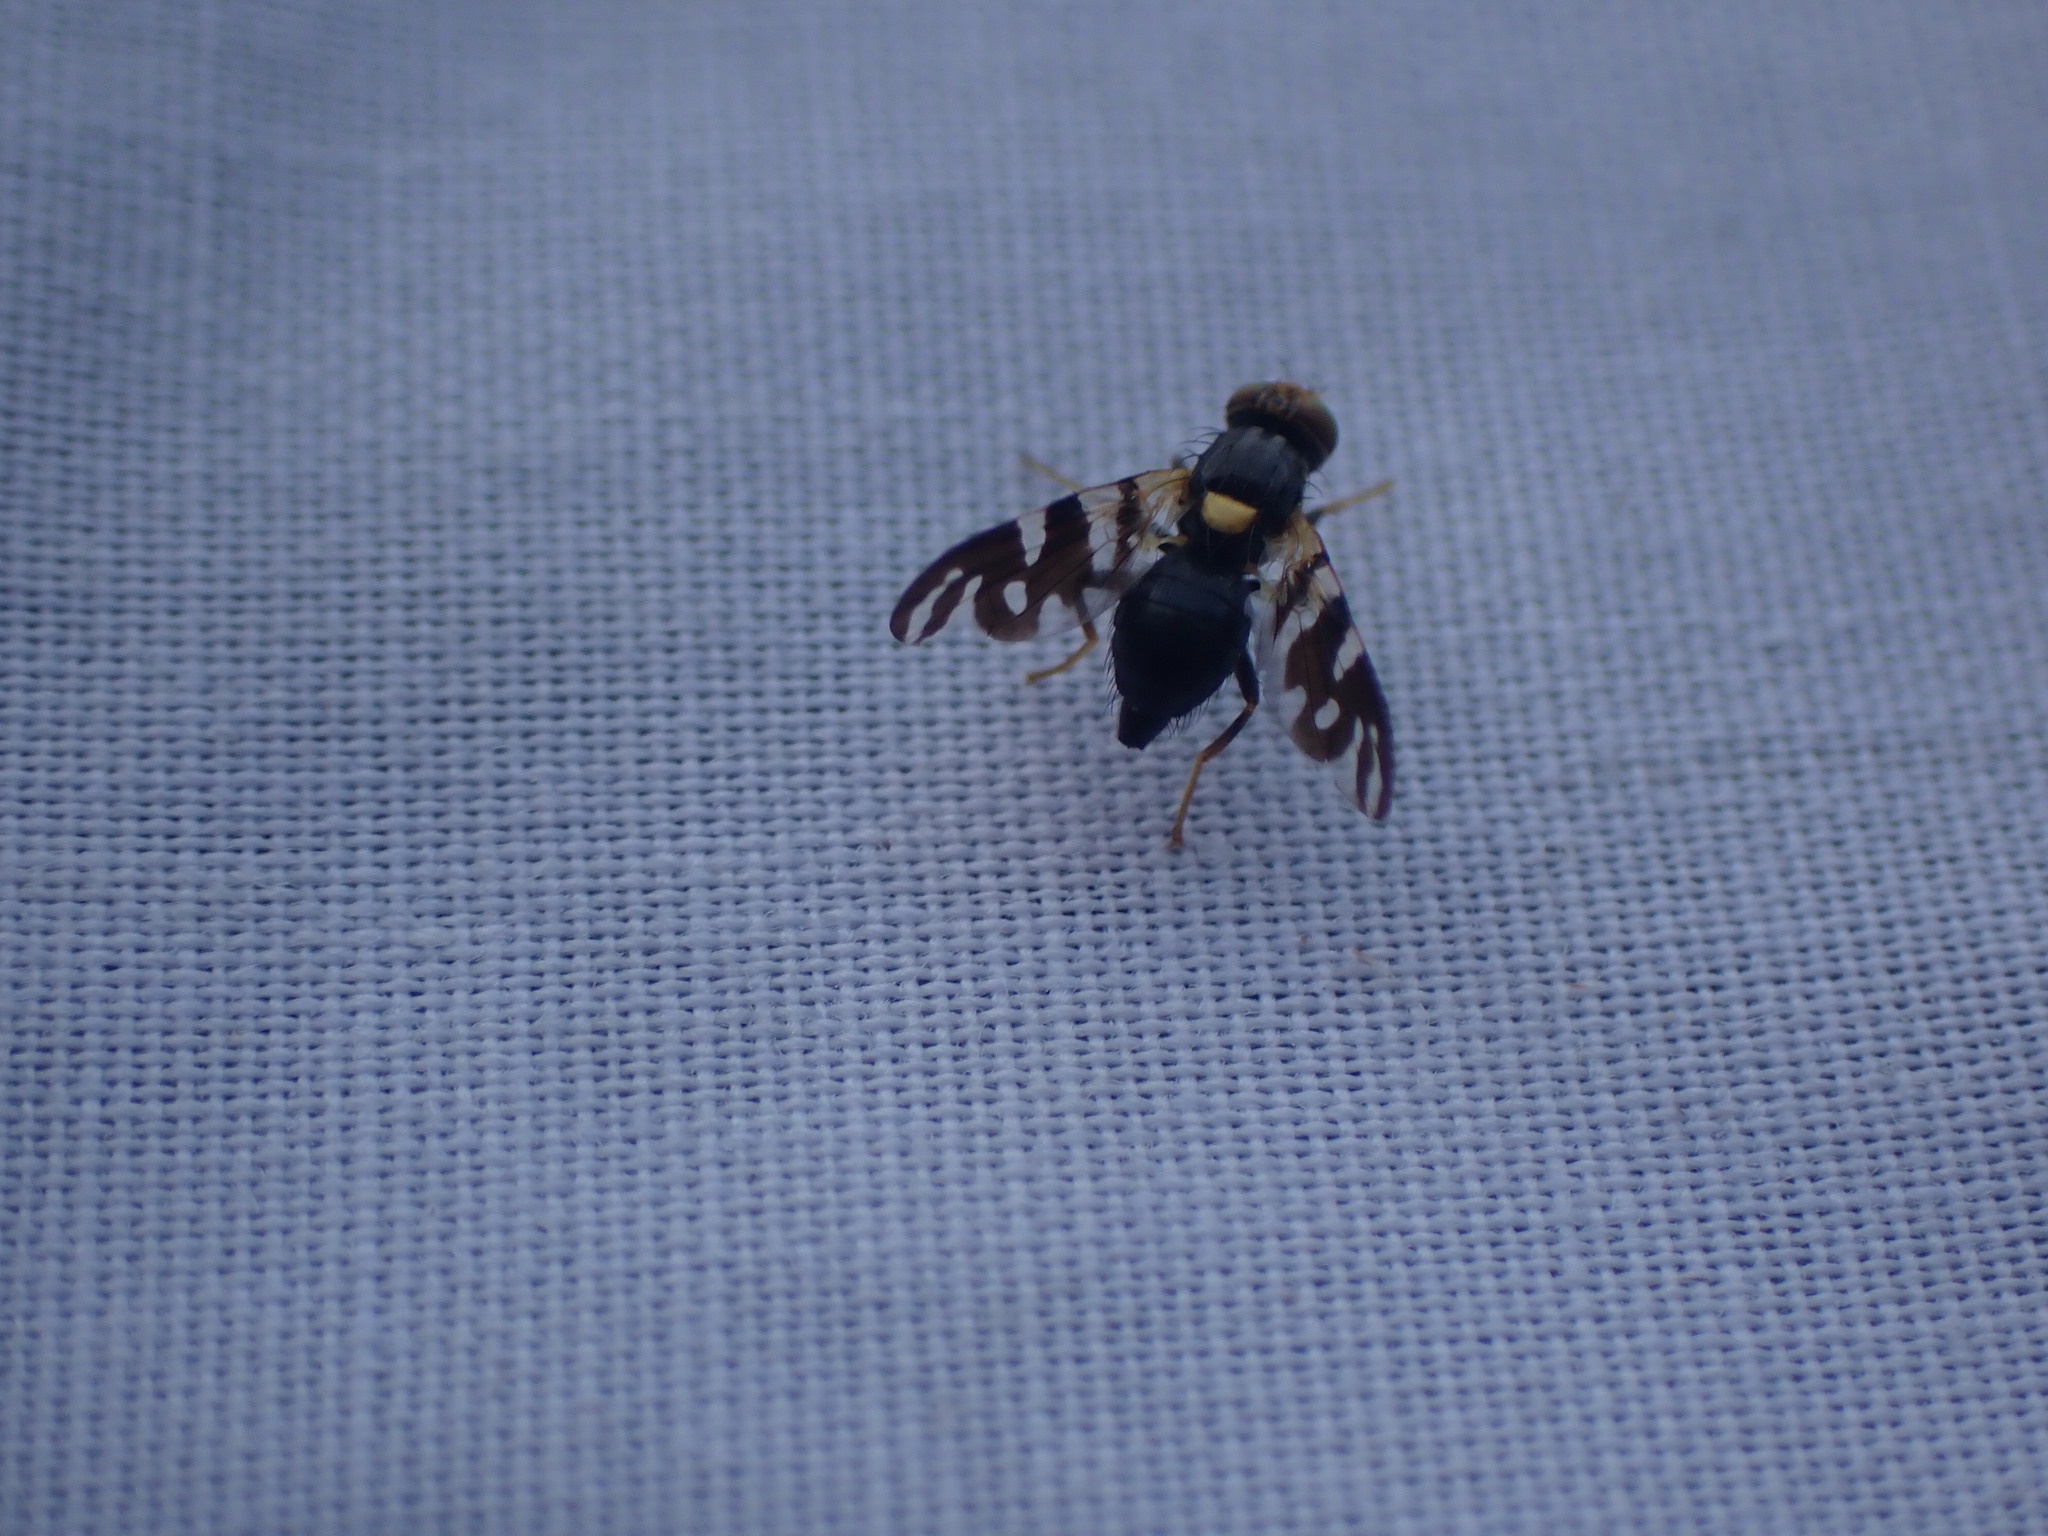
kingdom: Animalia
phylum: Arthropoda
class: Insecta
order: Diptera
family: Tephritidae
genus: Rhagoletis
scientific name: Rhagoletis fausta
